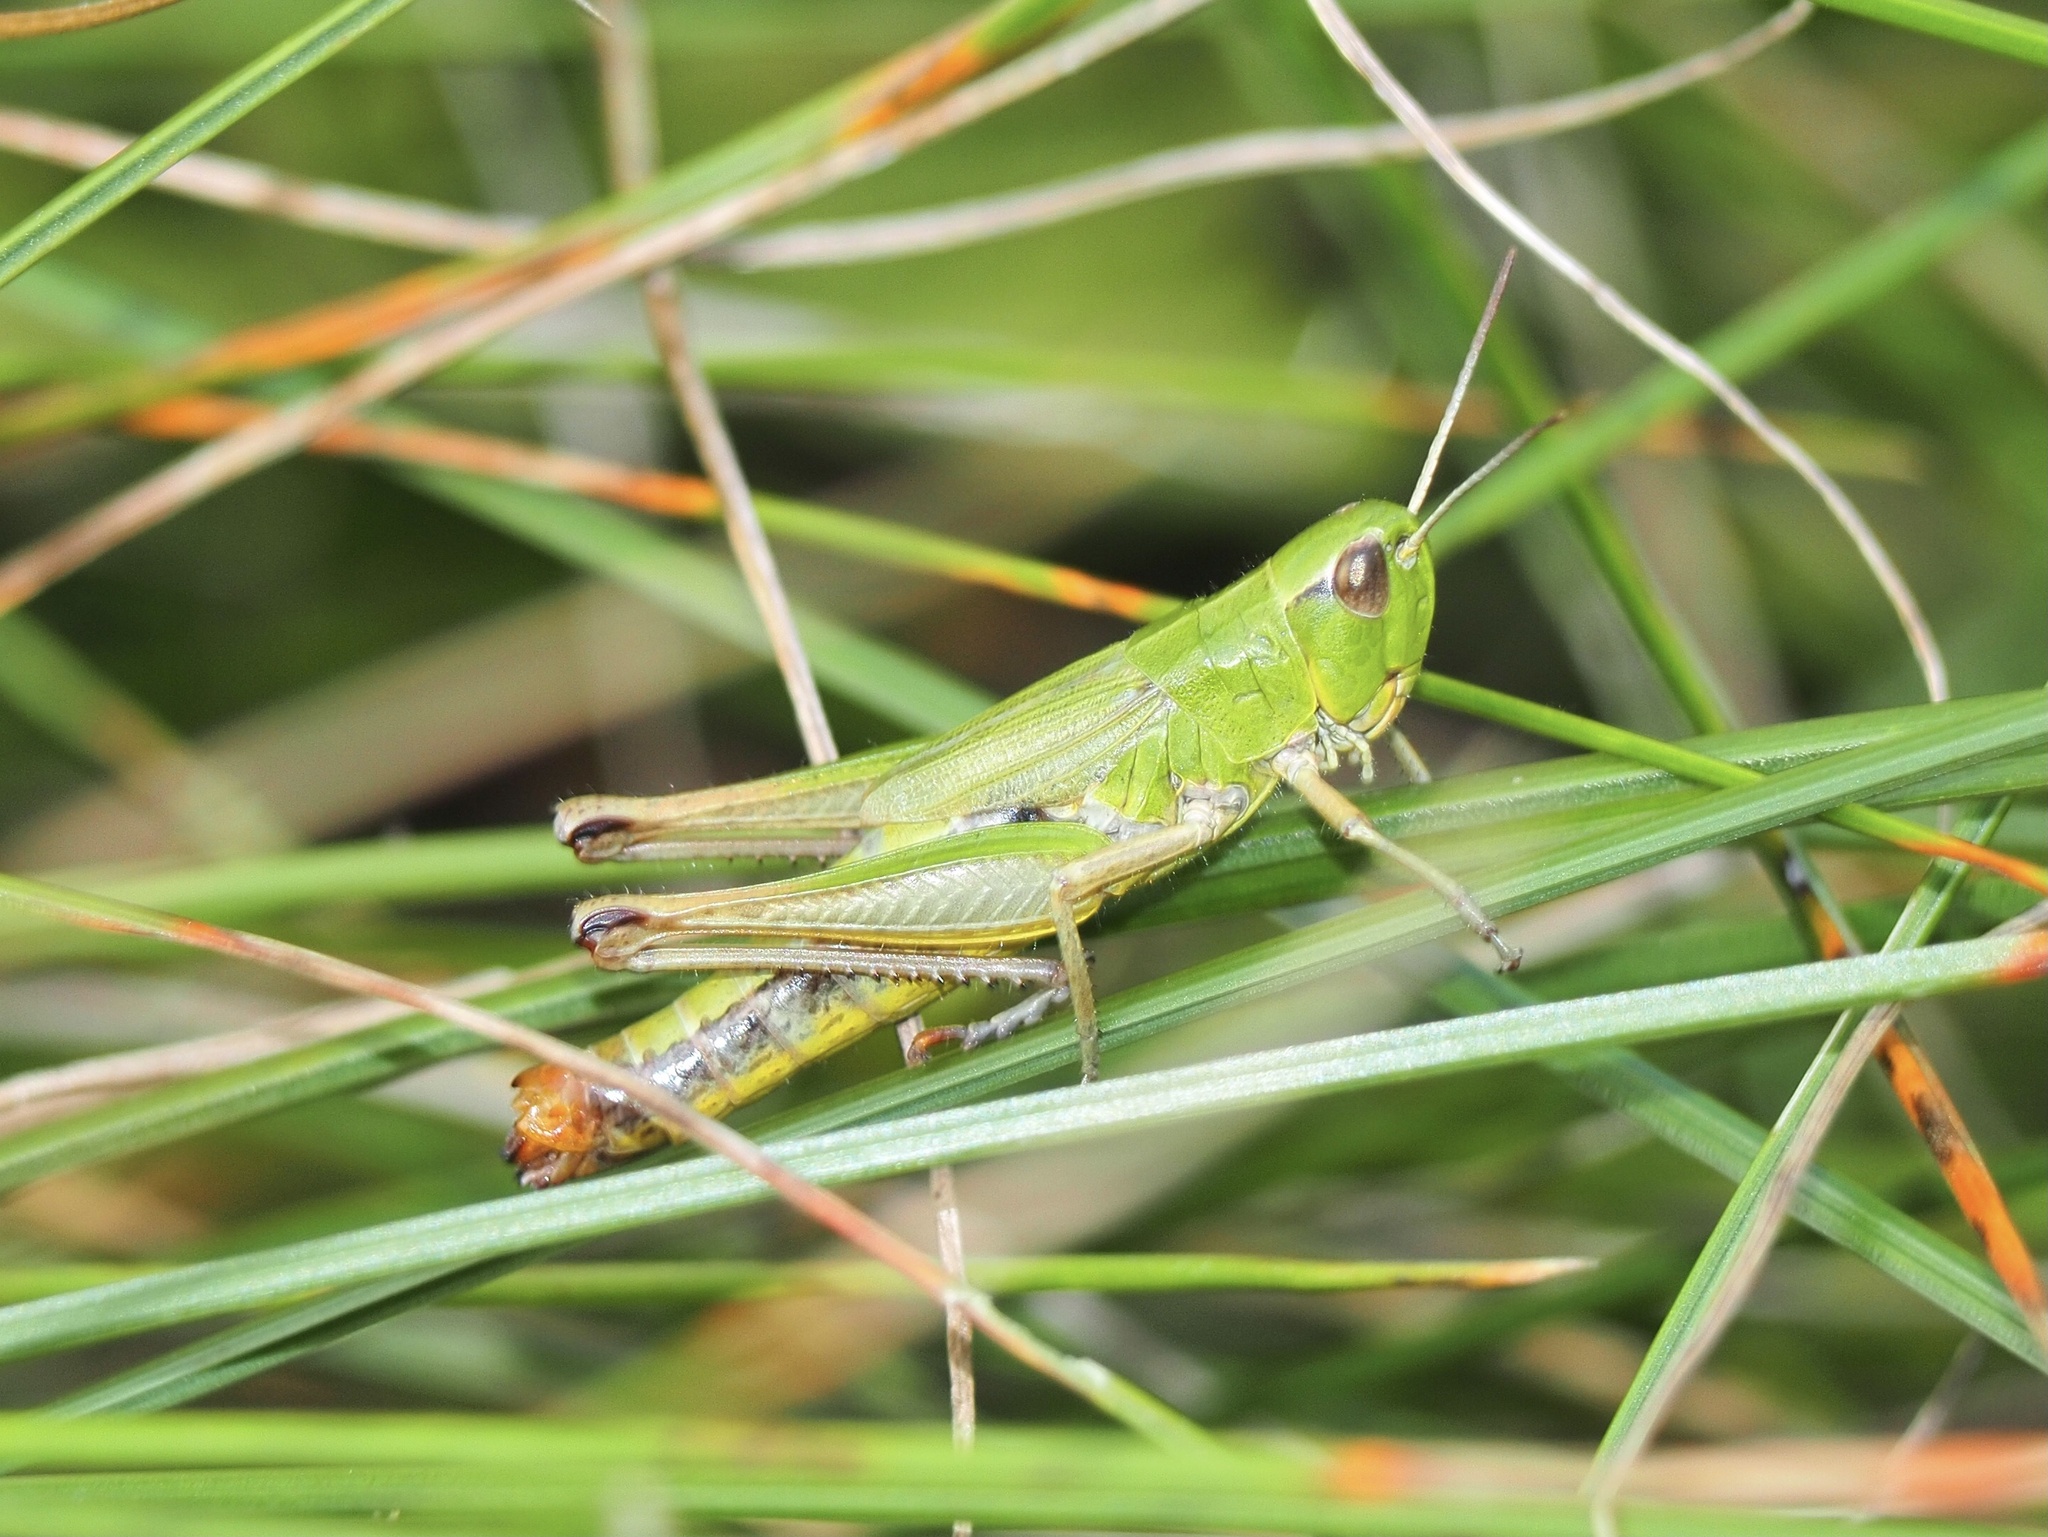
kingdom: Animalia
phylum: Arthropoda
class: Insecta
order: Orthoptera
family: Acrididae
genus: Pseudochorthippus
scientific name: Pseudochorthippus parallelus
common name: Meadow grasshopper
